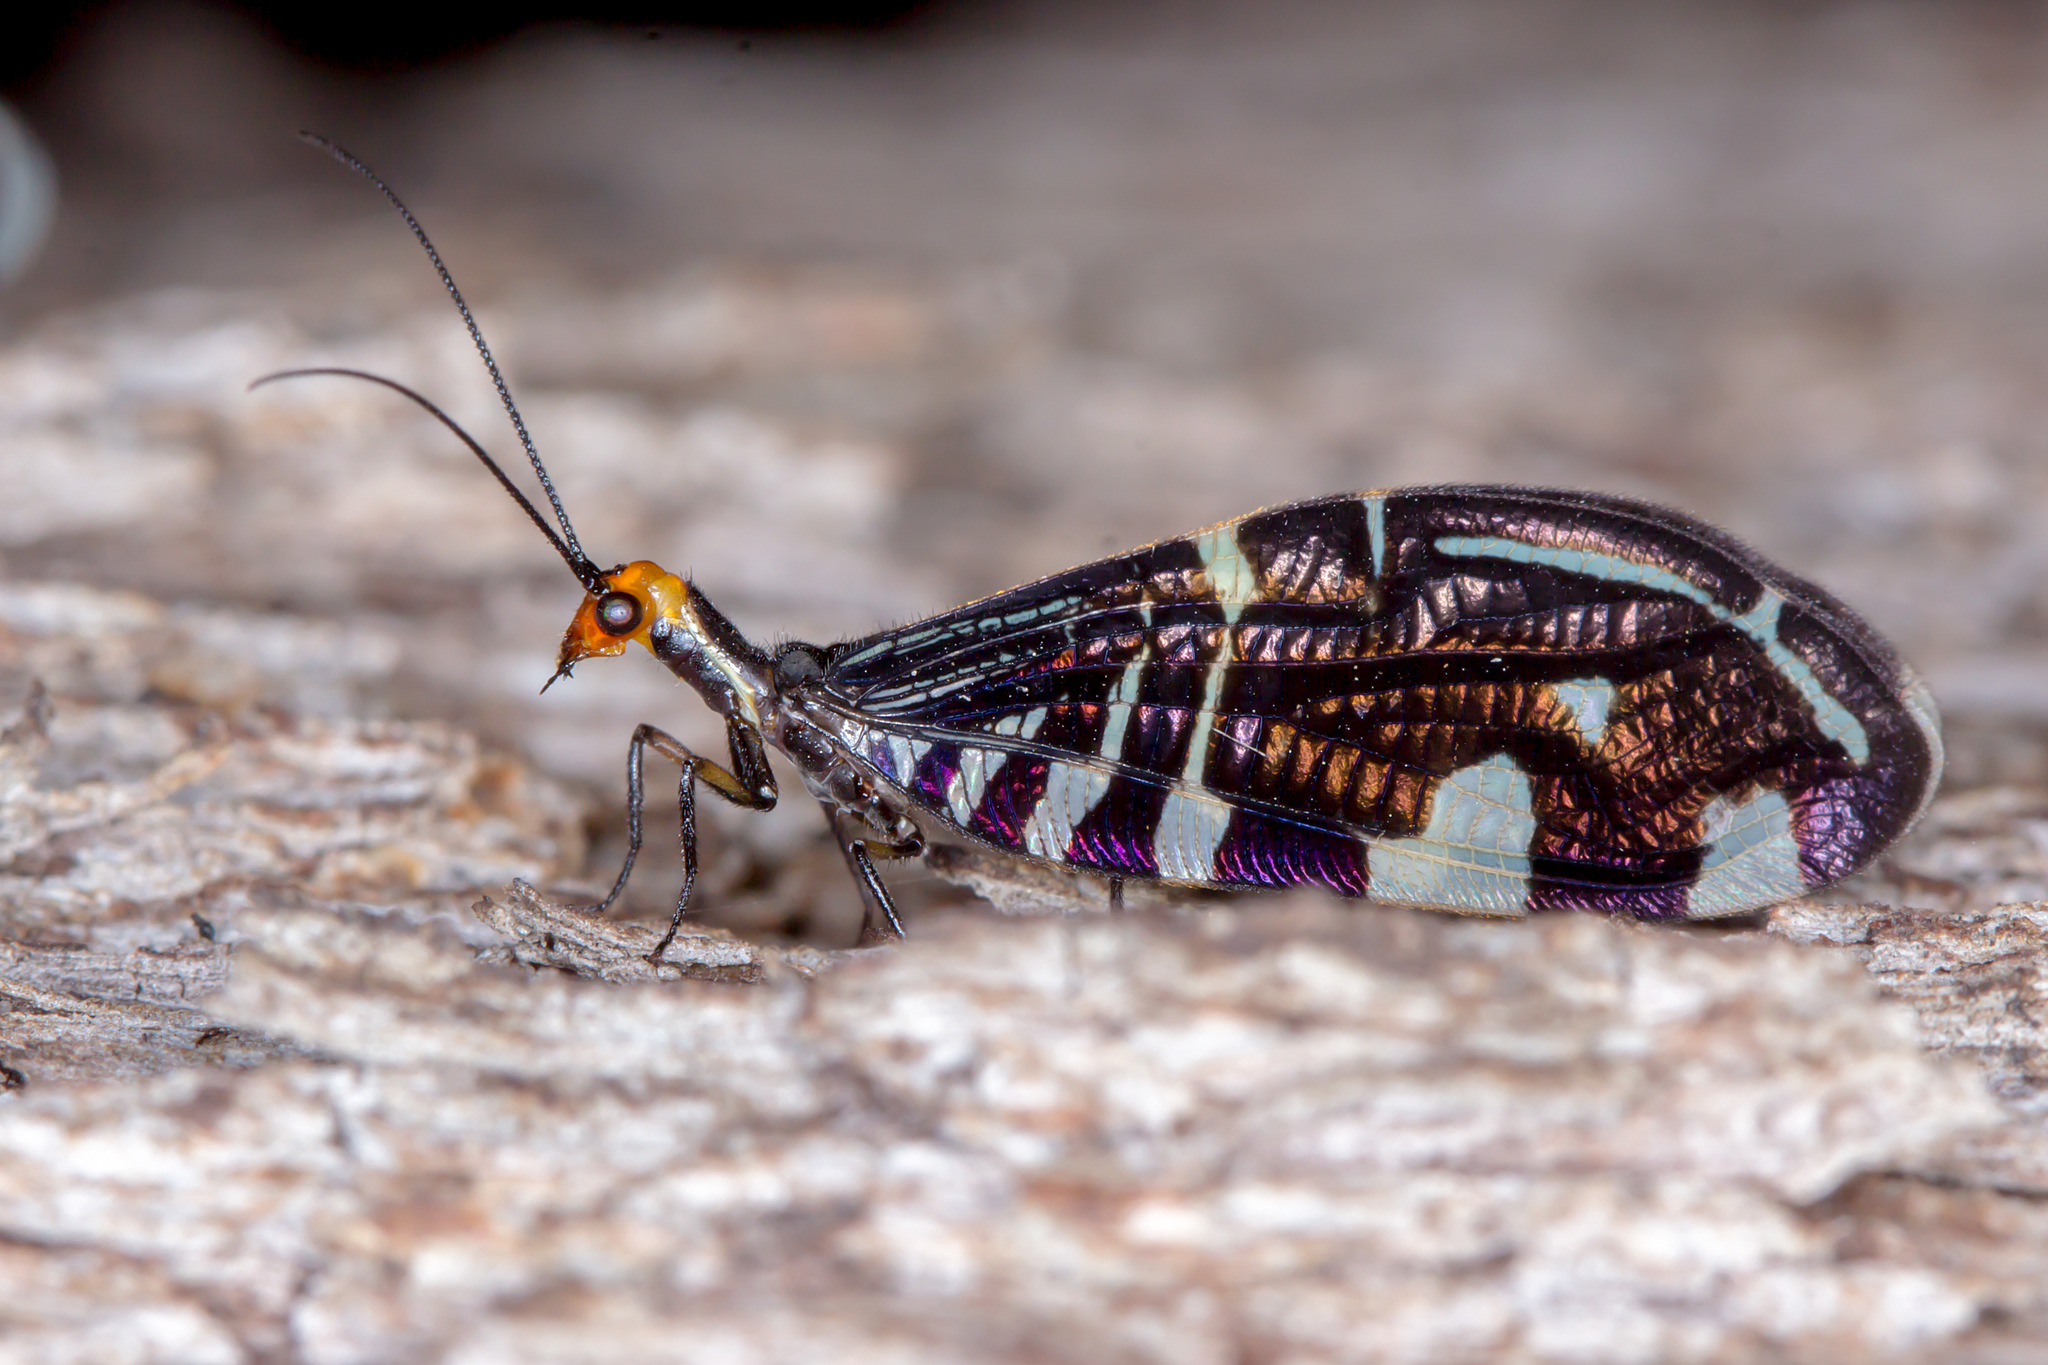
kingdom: Animalia
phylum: Arthropoda
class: Insecta
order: Neuroptera
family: Osmylidae
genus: Porismus
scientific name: Porismus strigatus
